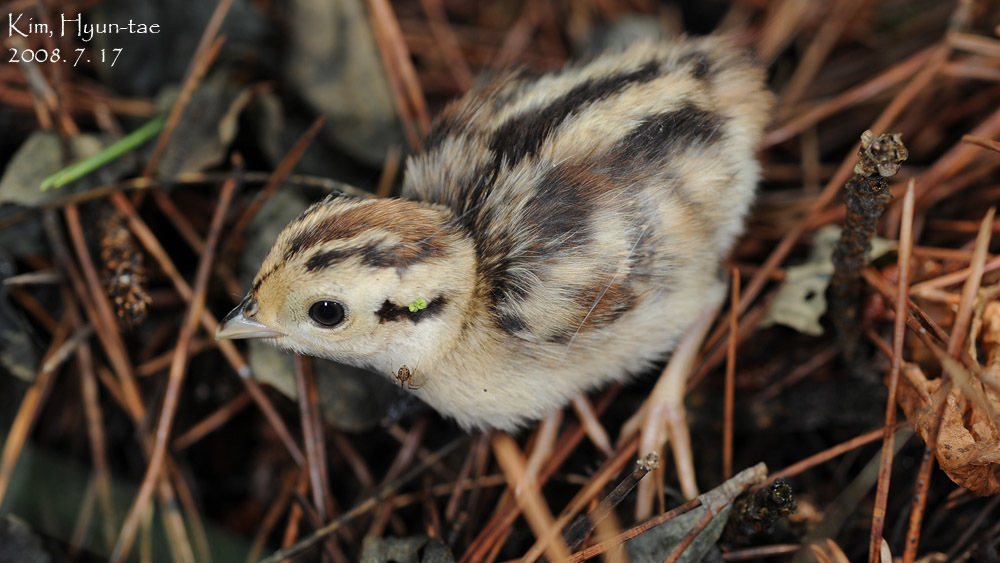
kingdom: Animalia
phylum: Chordata
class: Aves
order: Galliformes
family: Phasianidae
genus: Phasianus
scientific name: Phasianus colchicus
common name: Common pheasant
